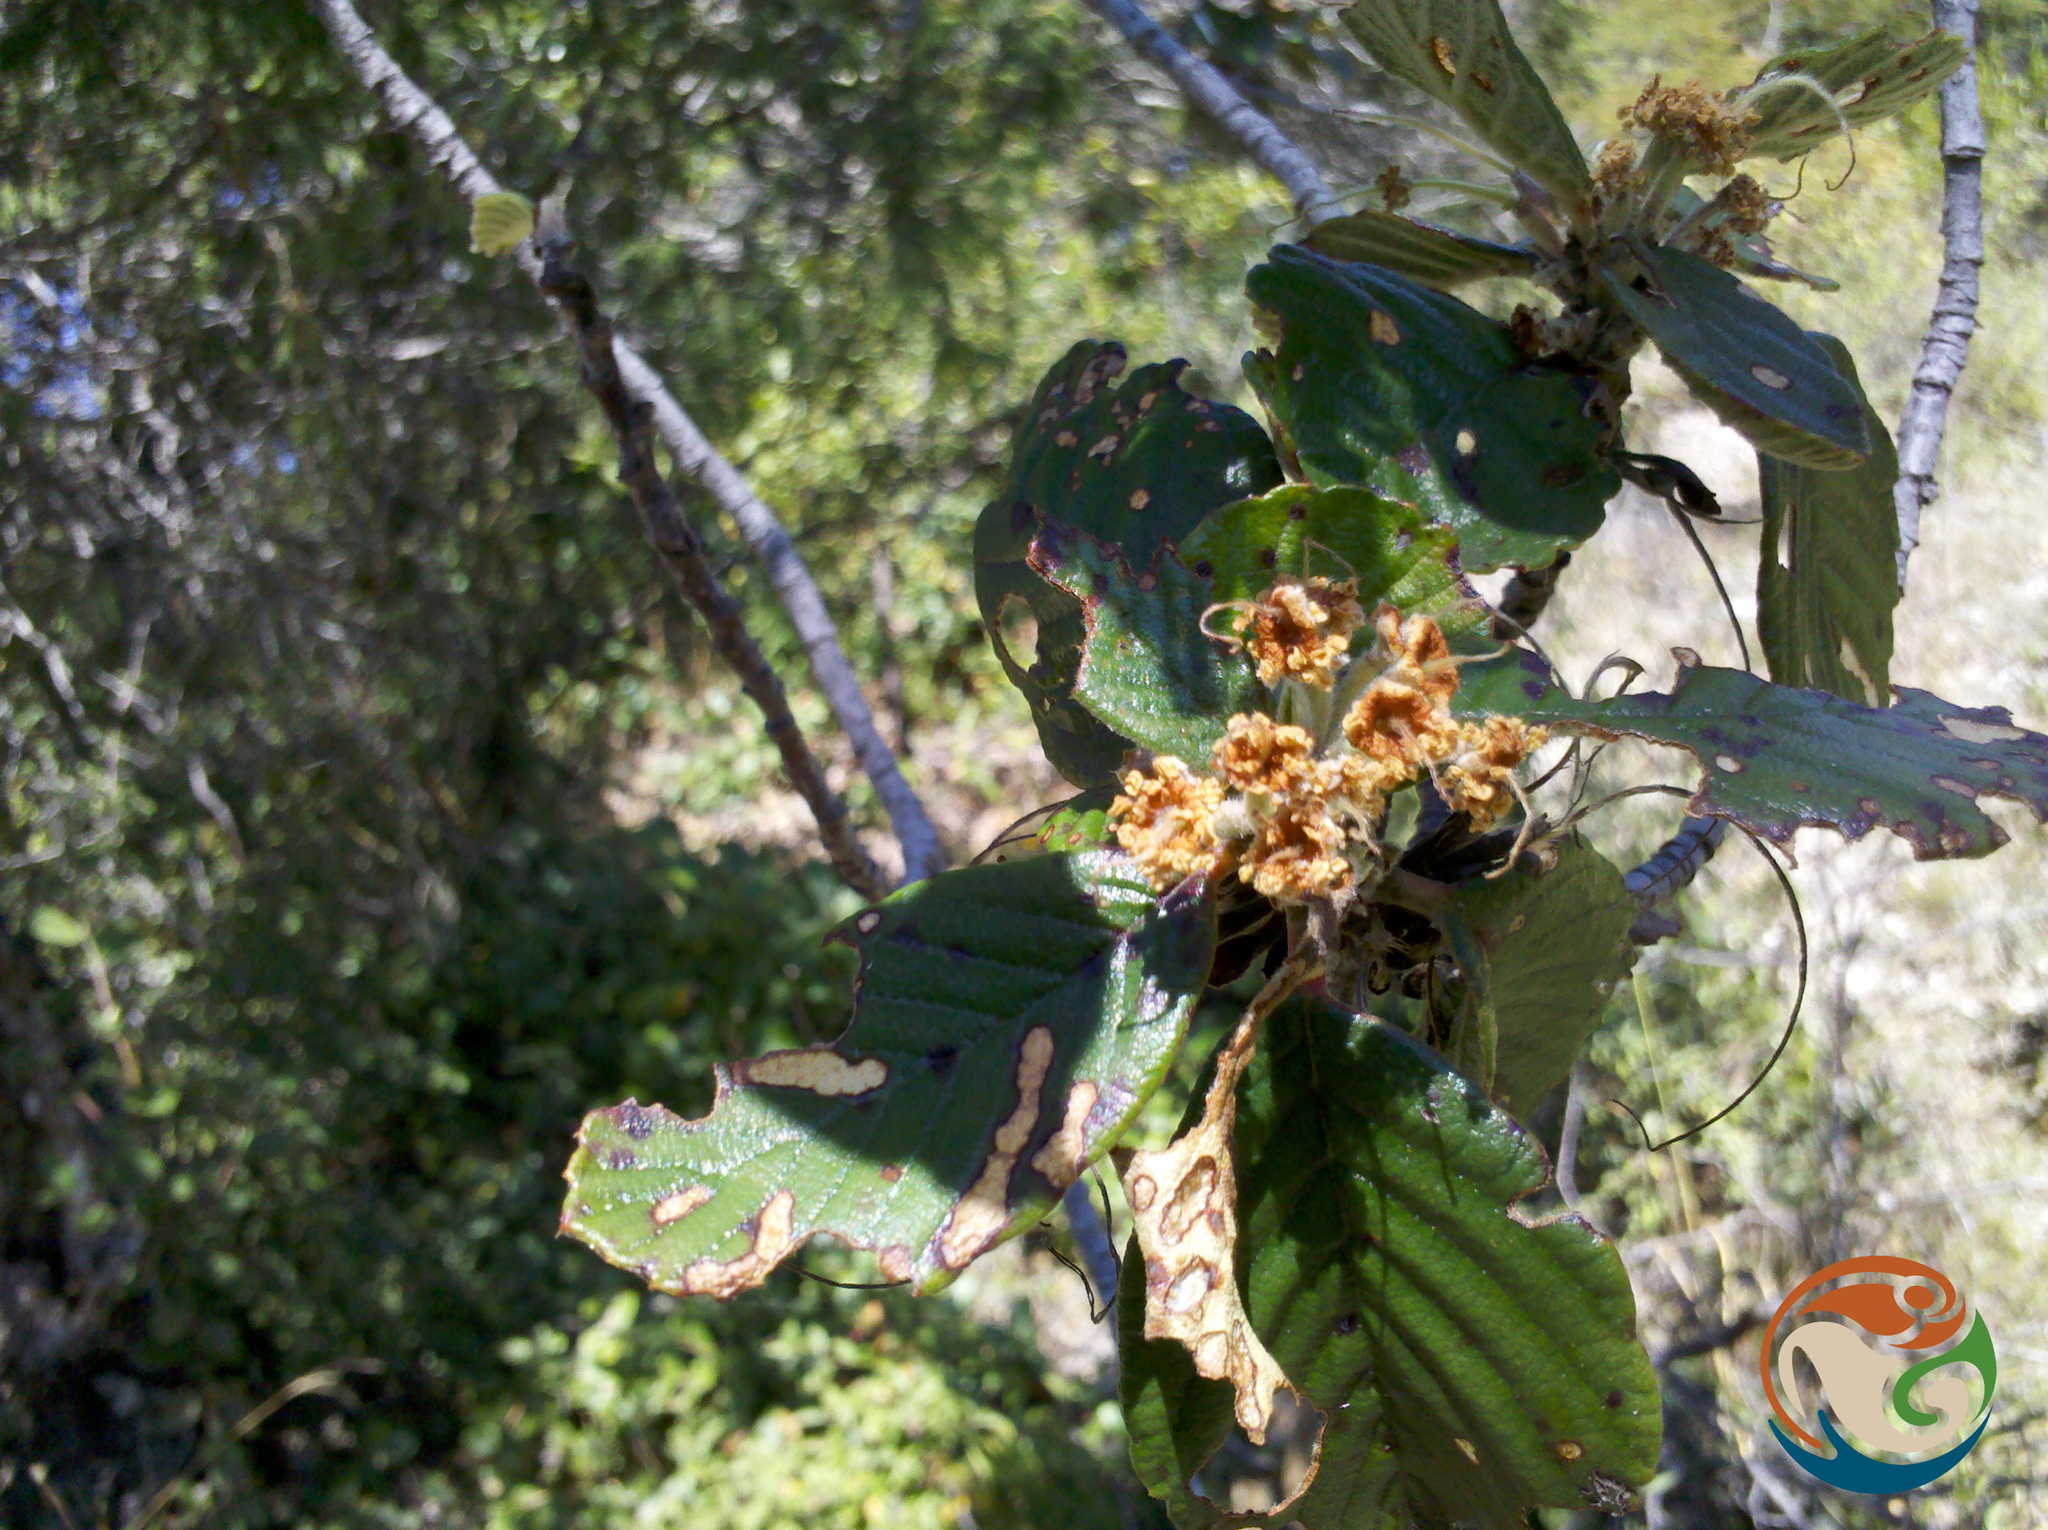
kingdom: Plantae
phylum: Tracheophyta
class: Magnoliopsida
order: Rosales
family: Rosaceae
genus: Cercocarpus
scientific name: Cercocarpus pringlei
